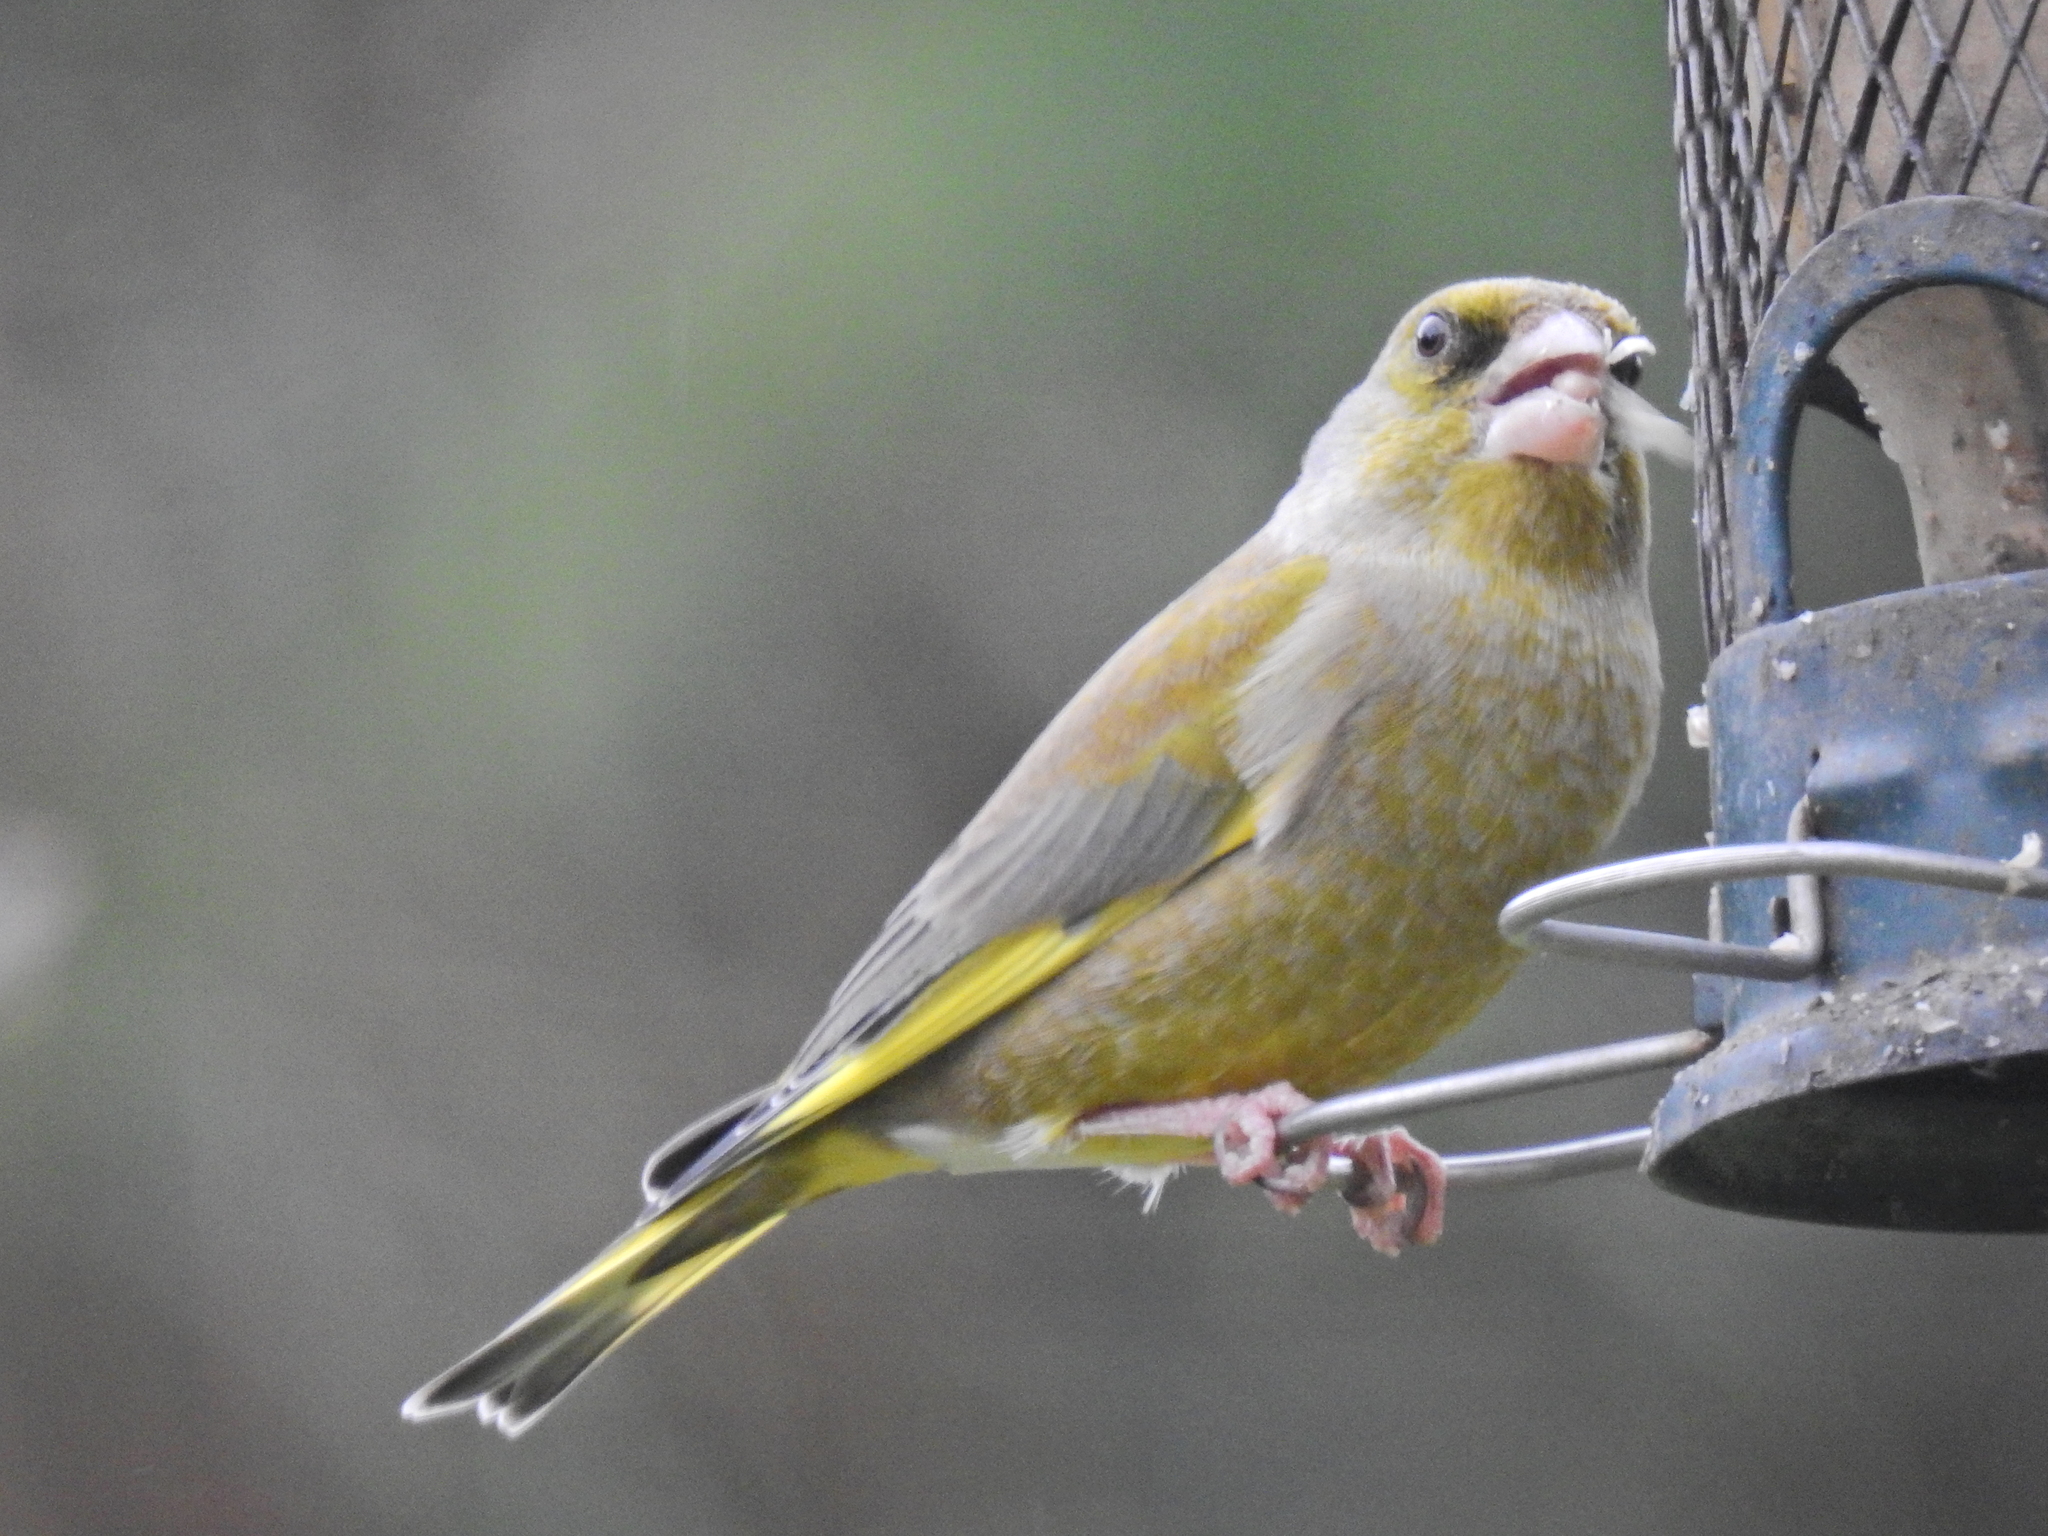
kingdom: Plantae
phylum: Tracheophyta
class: Liliopsida
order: Poales
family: Poaceae
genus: Chloris
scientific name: Chloris chloris
